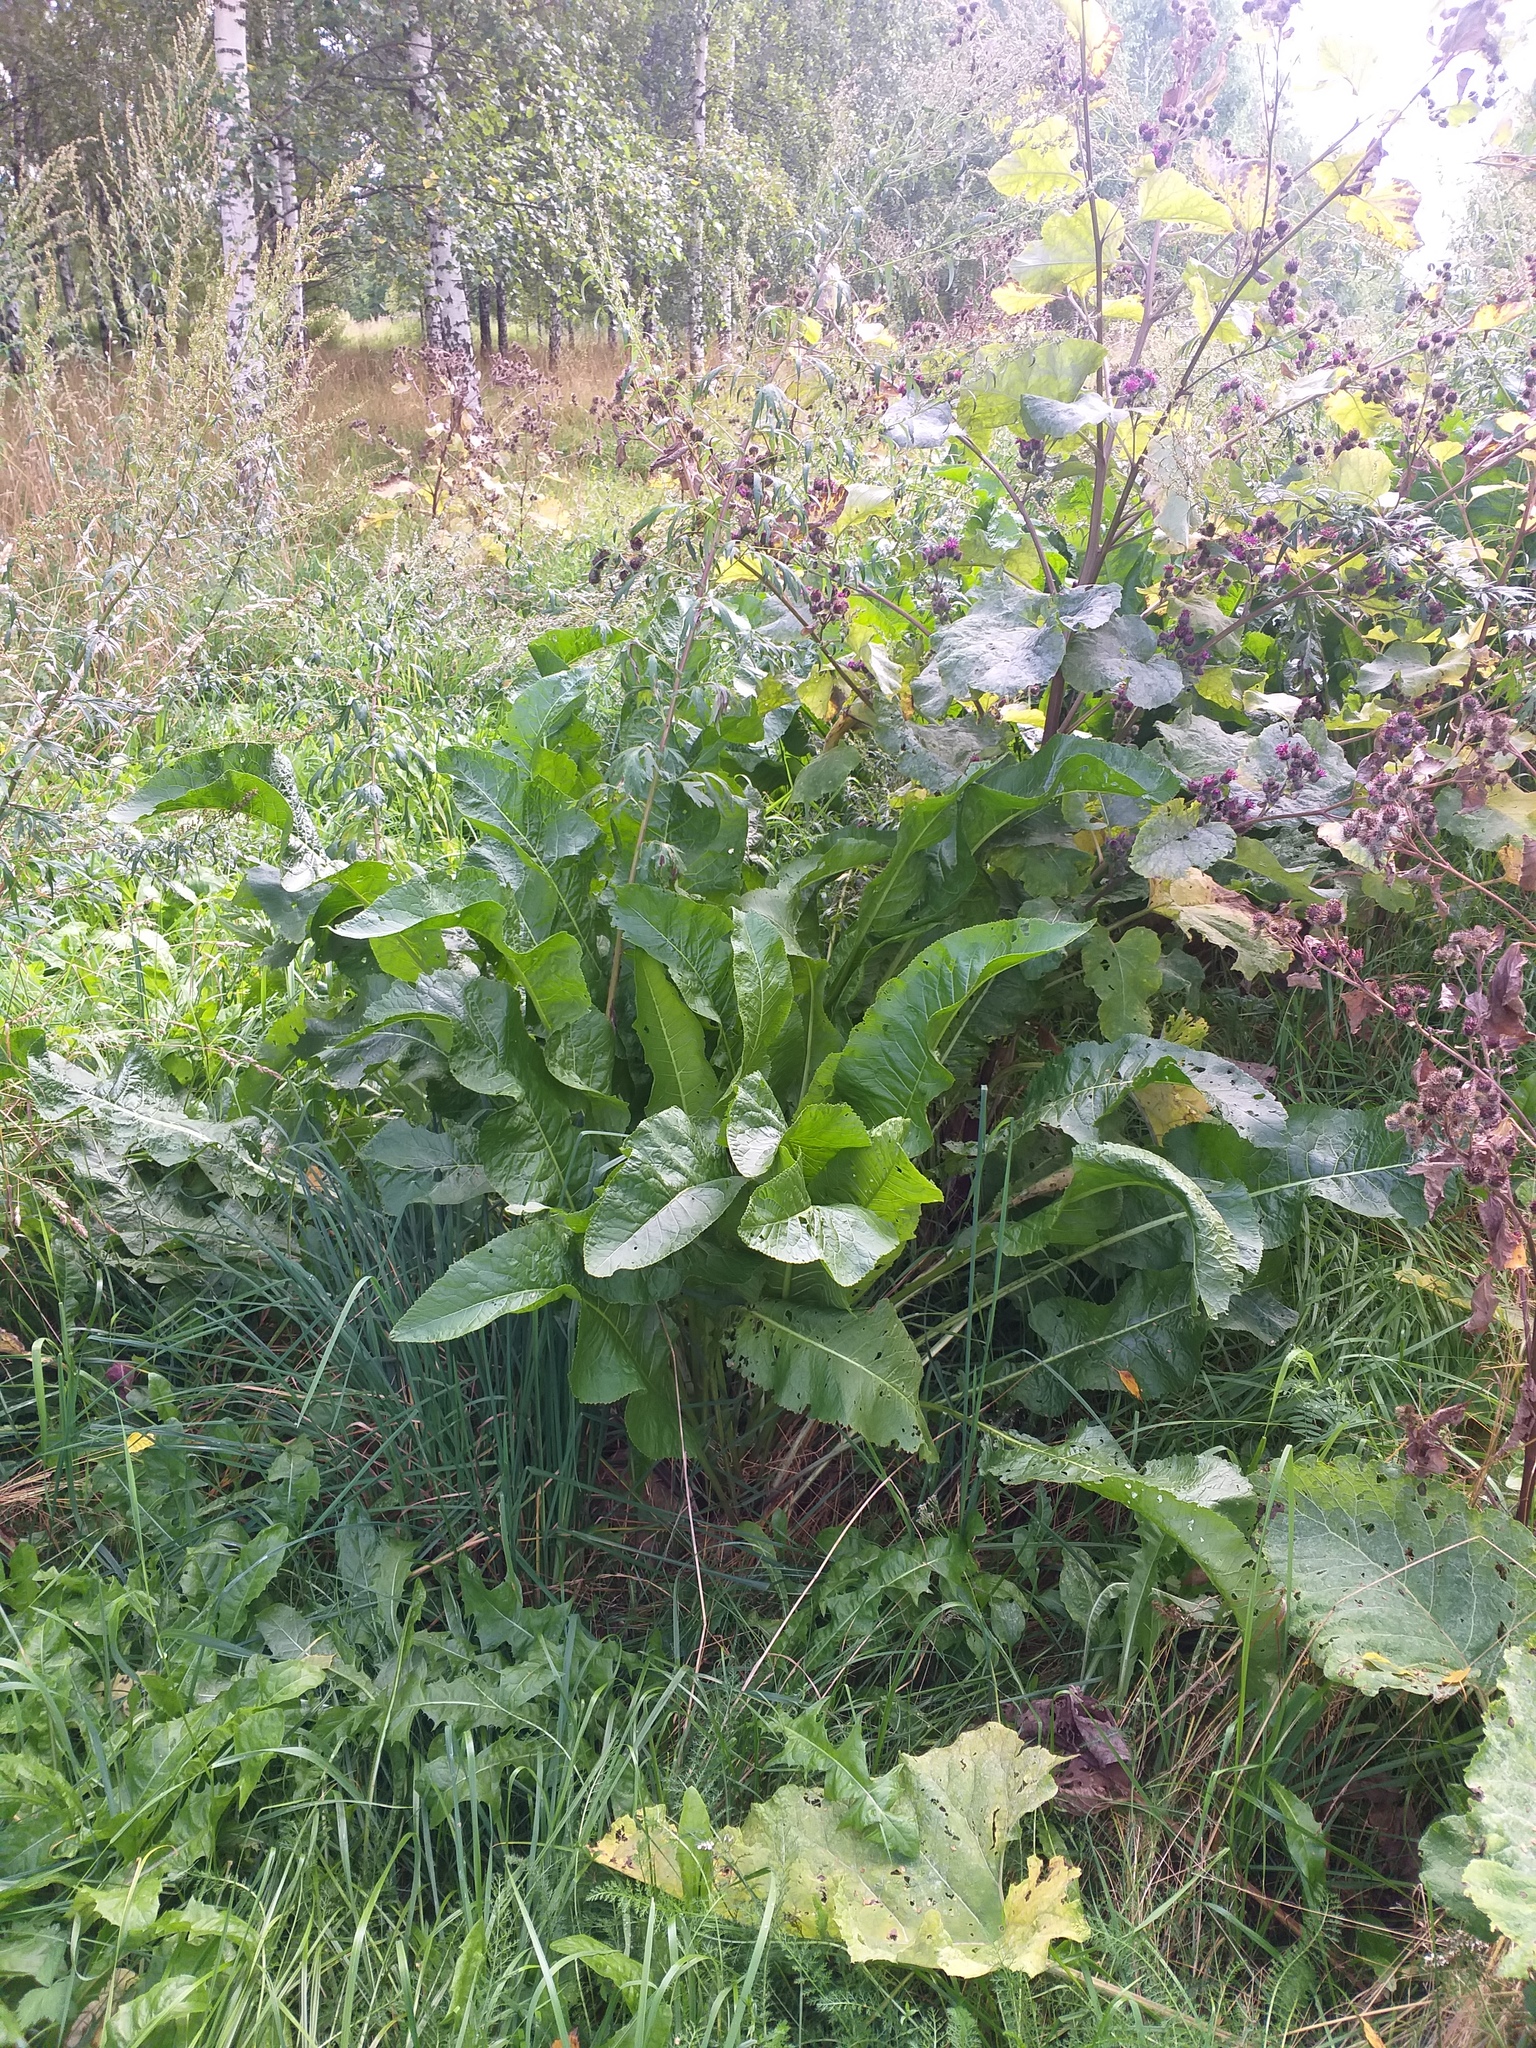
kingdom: Plantae
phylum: Tracheophyta
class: Magnoliopsida
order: Brassicales
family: Brassicaceae
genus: Armoracia
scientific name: Armoracia rusticana
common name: Horseradish
